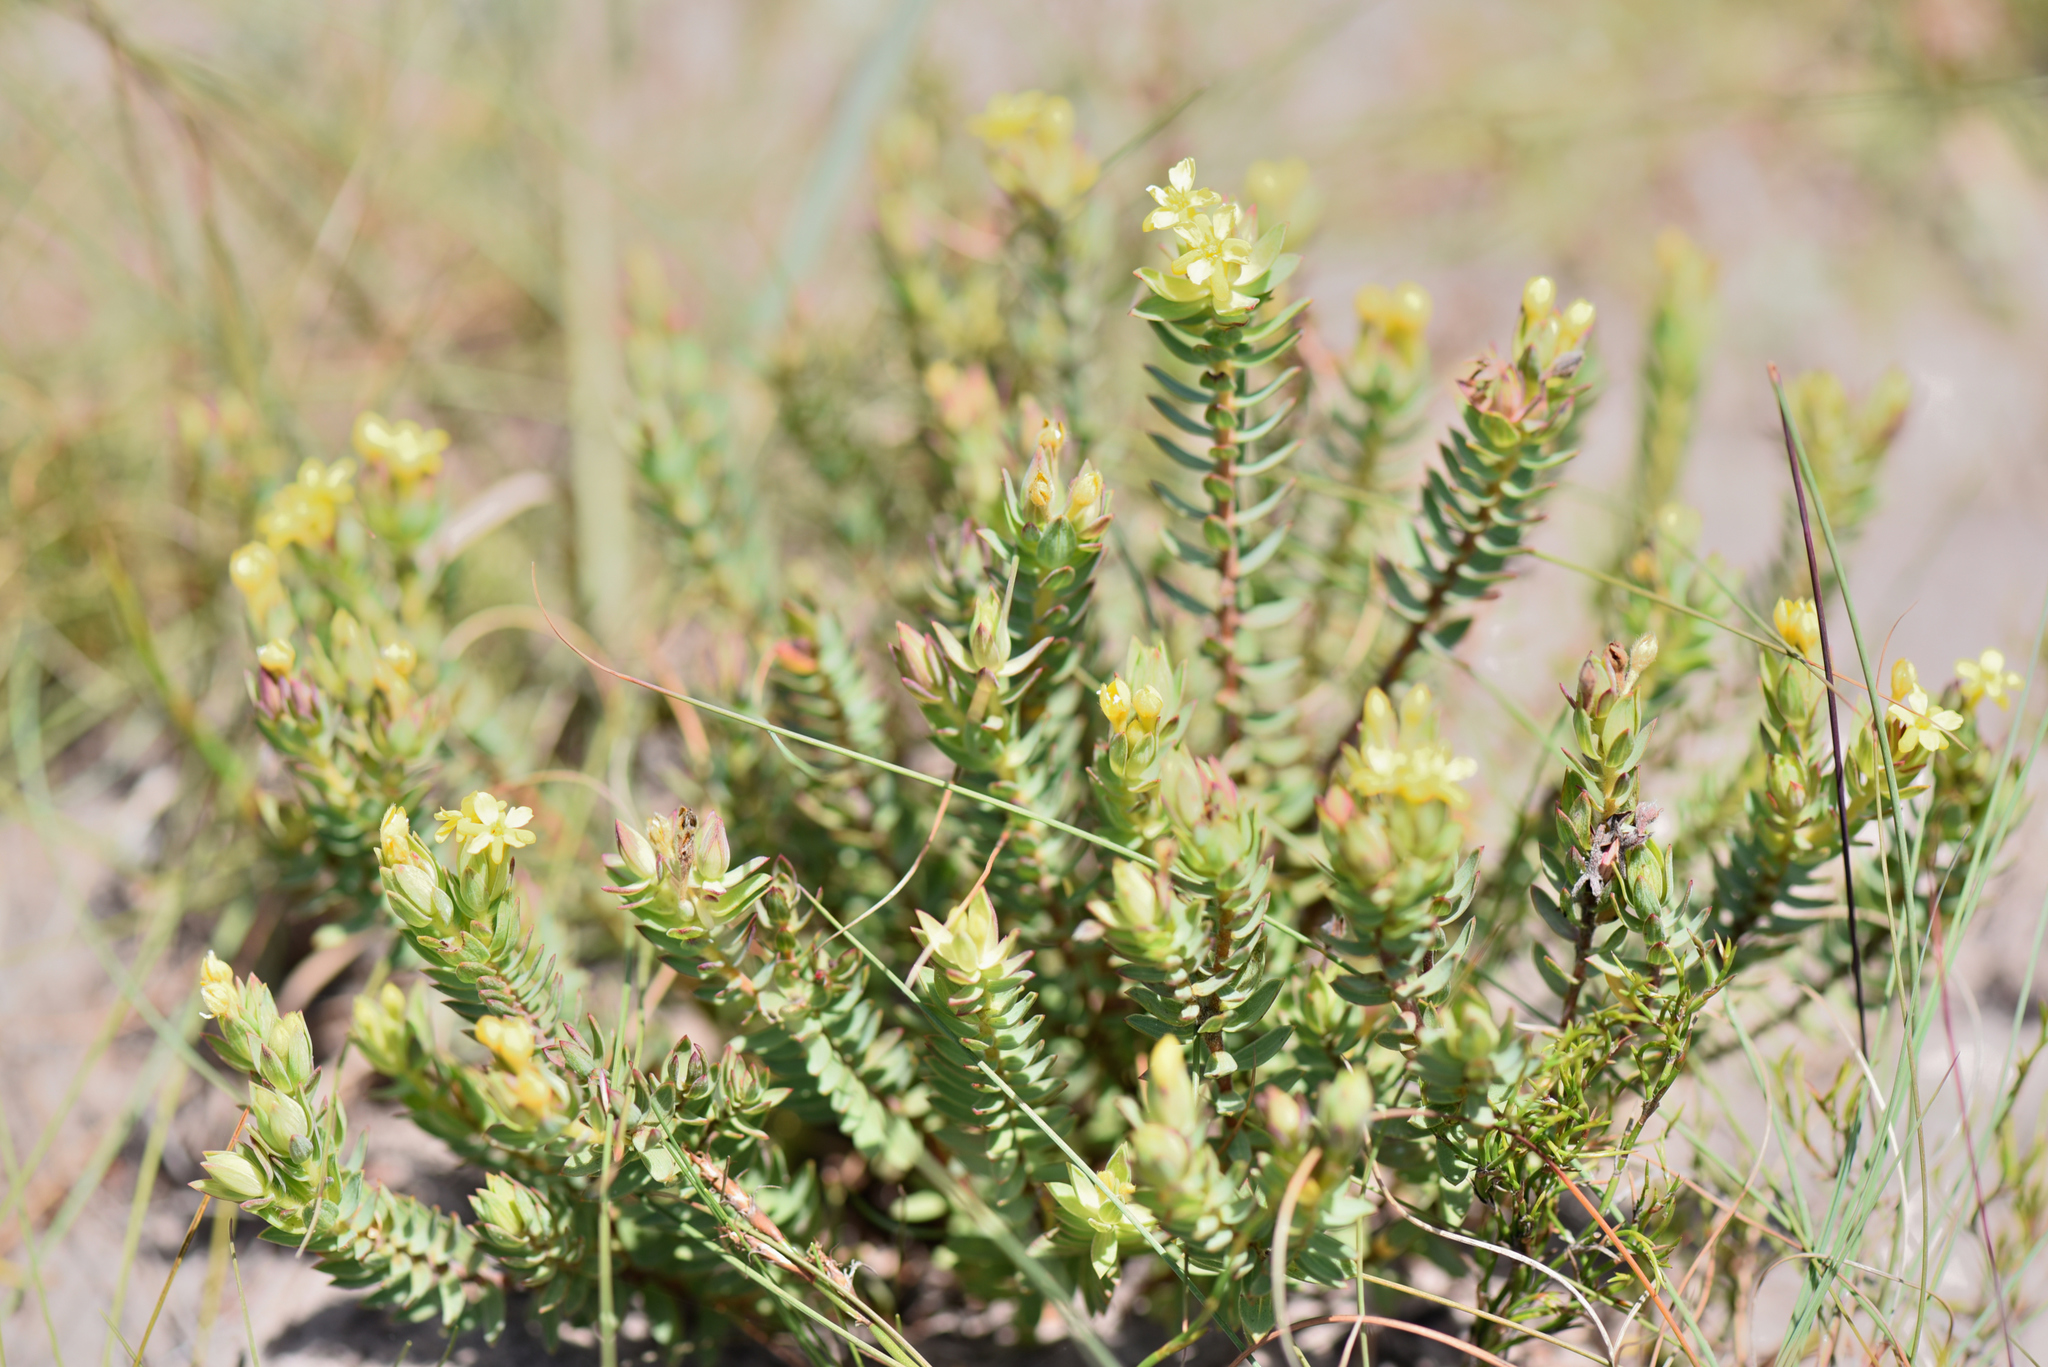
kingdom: Plantae
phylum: Tracheophyta
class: Magnoliopsida
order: Malvales
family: Thymelaeaceae
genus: Gnidia
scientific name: Gnidia styphelioides
